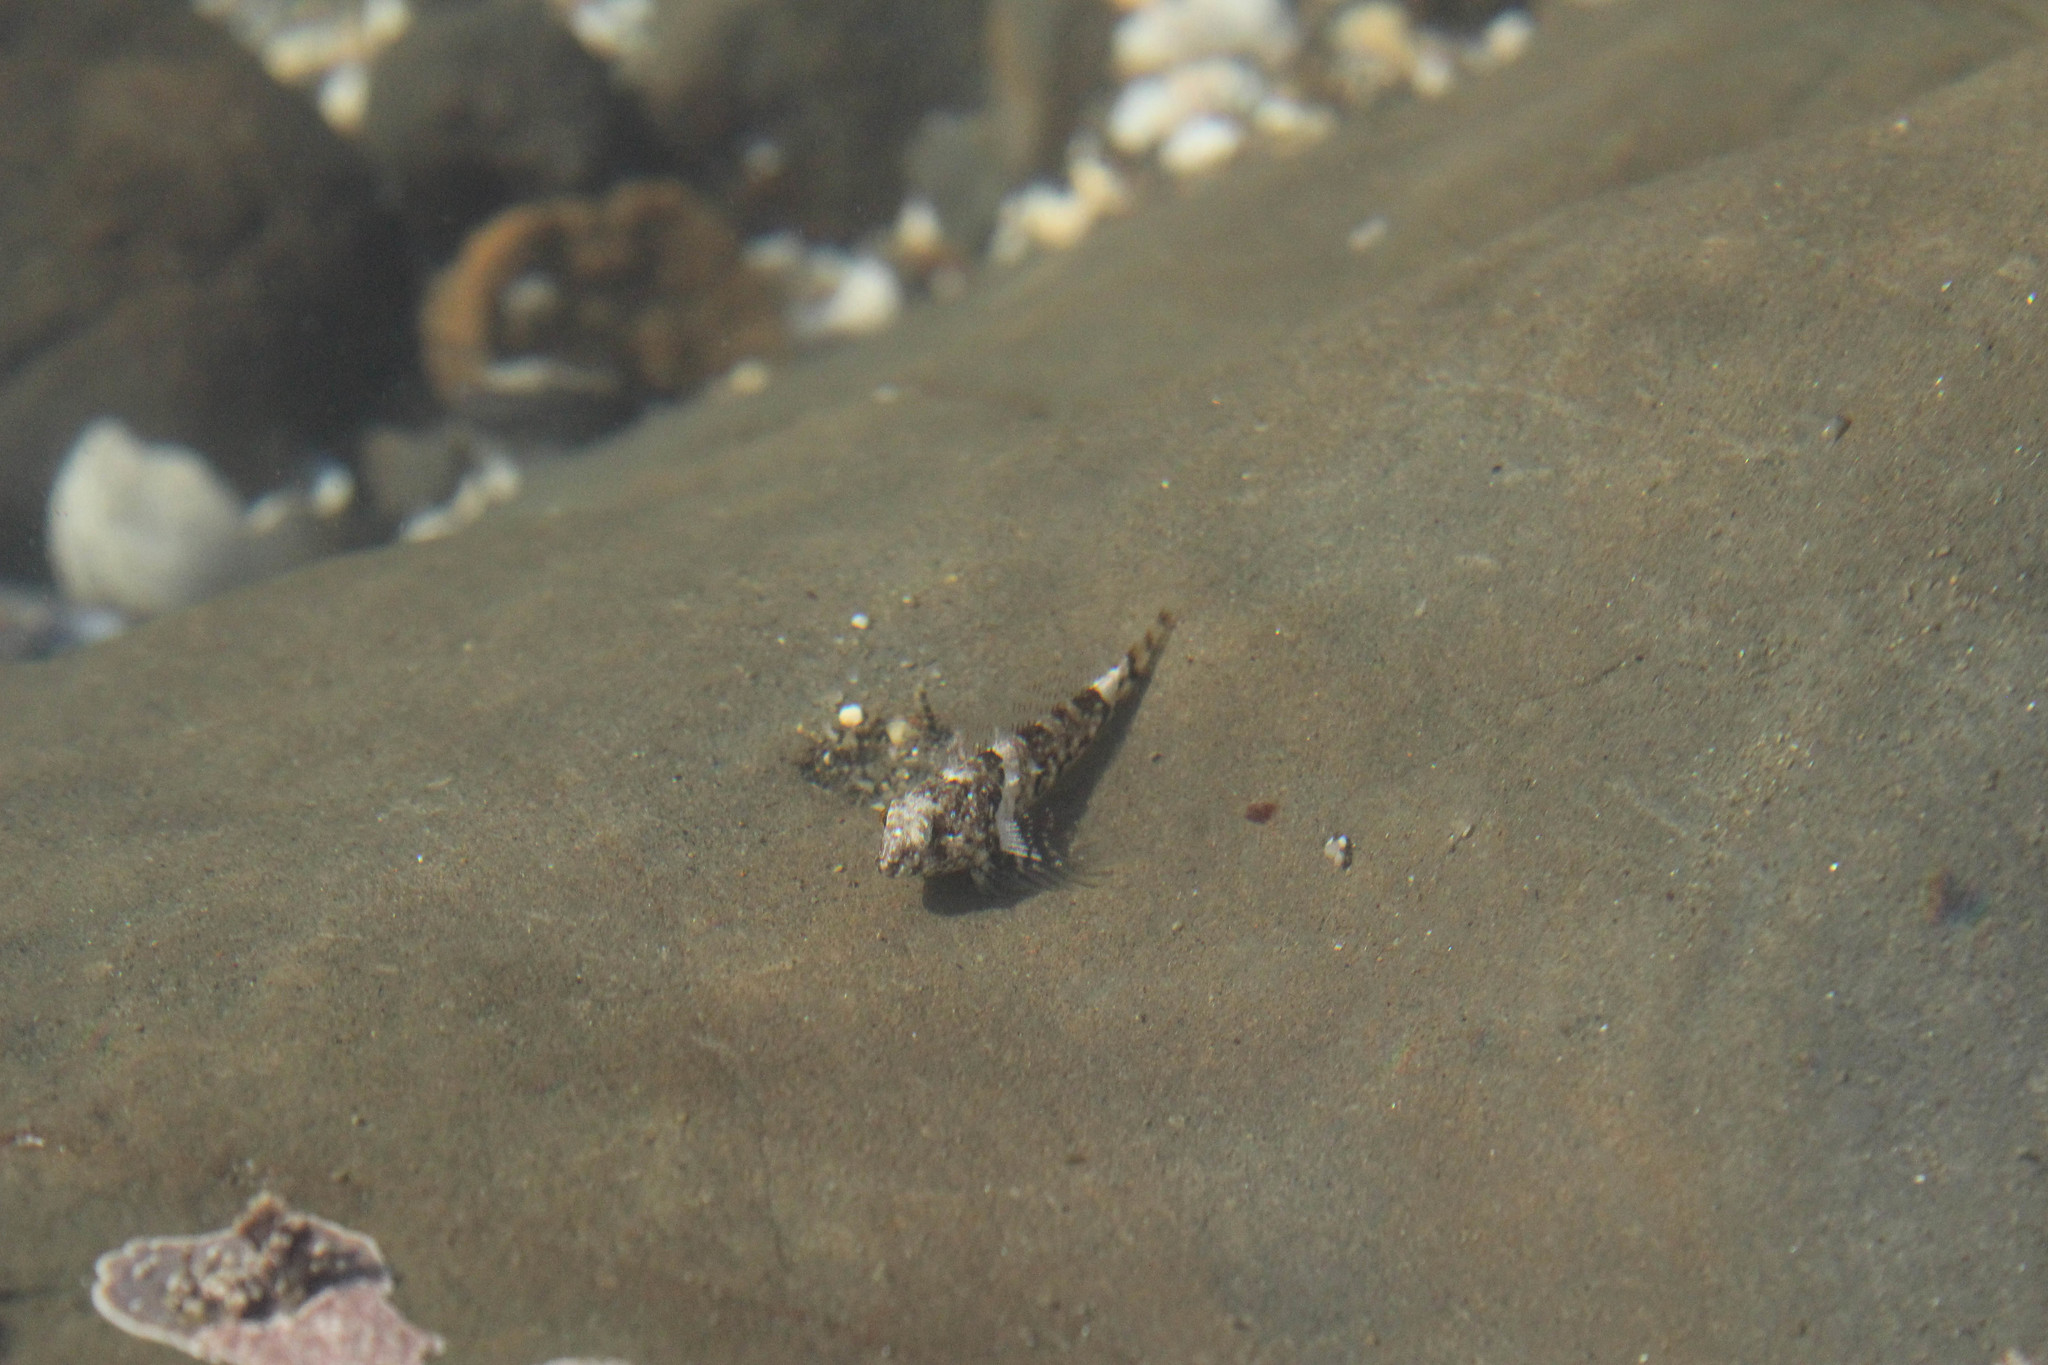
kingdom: Animalia
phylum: Chordata
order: Scorpaeniformes
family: Cottidae
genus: Clinocottus
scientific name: Clinocottus analis
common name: Woolly sculpin
